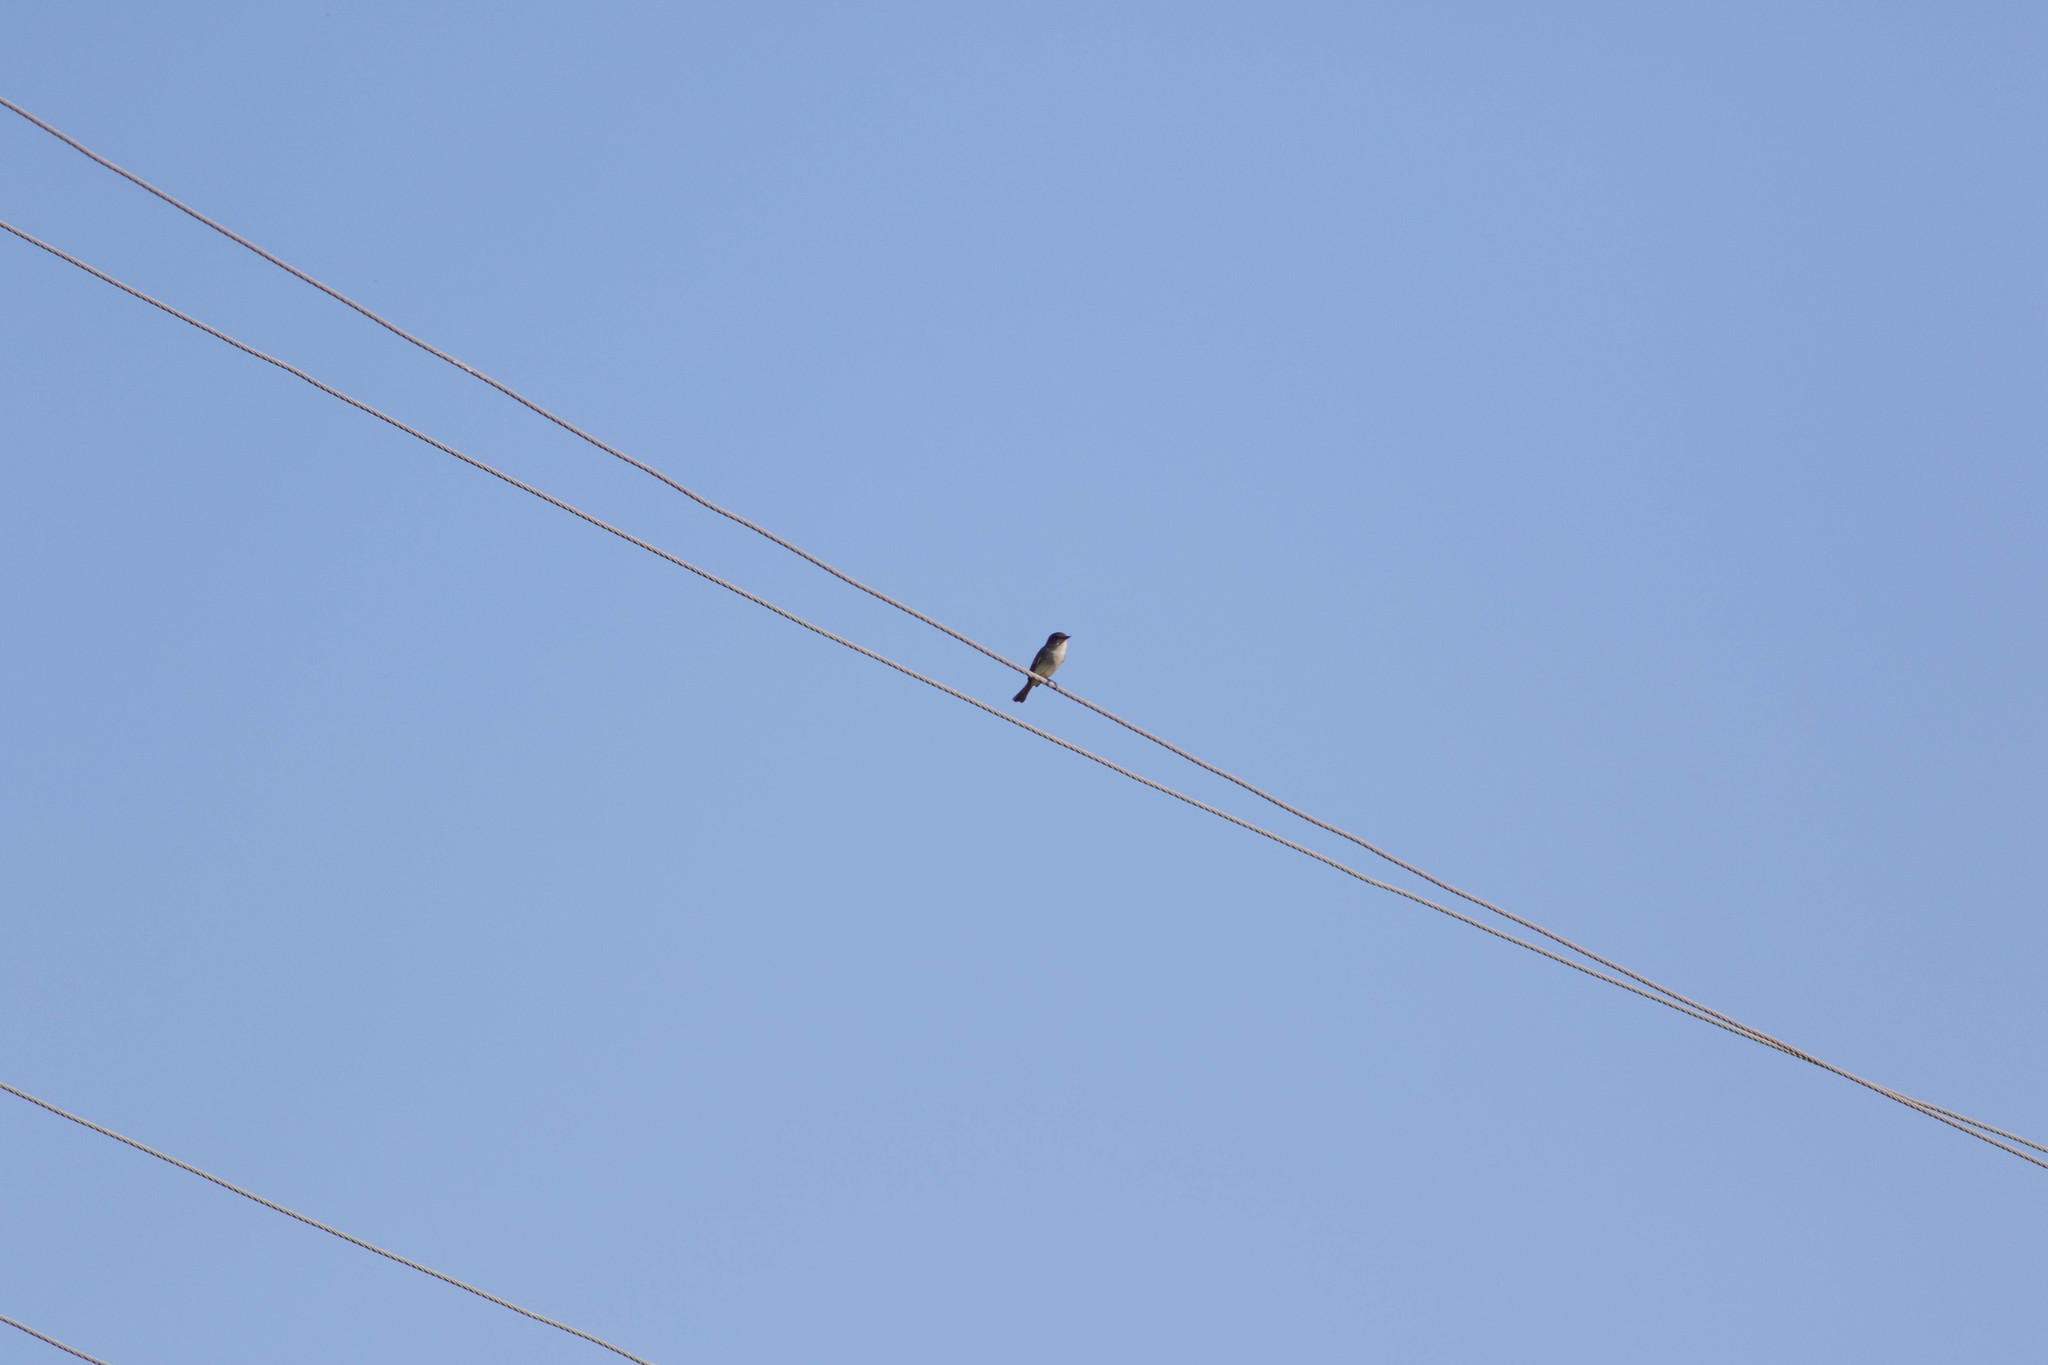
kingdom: Animalia
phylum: Chordata
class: Aves
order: Passeriformes
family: Tyrannidae
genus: Sayornis
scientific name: Sayornis phoebe
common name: Eastern phoebe
